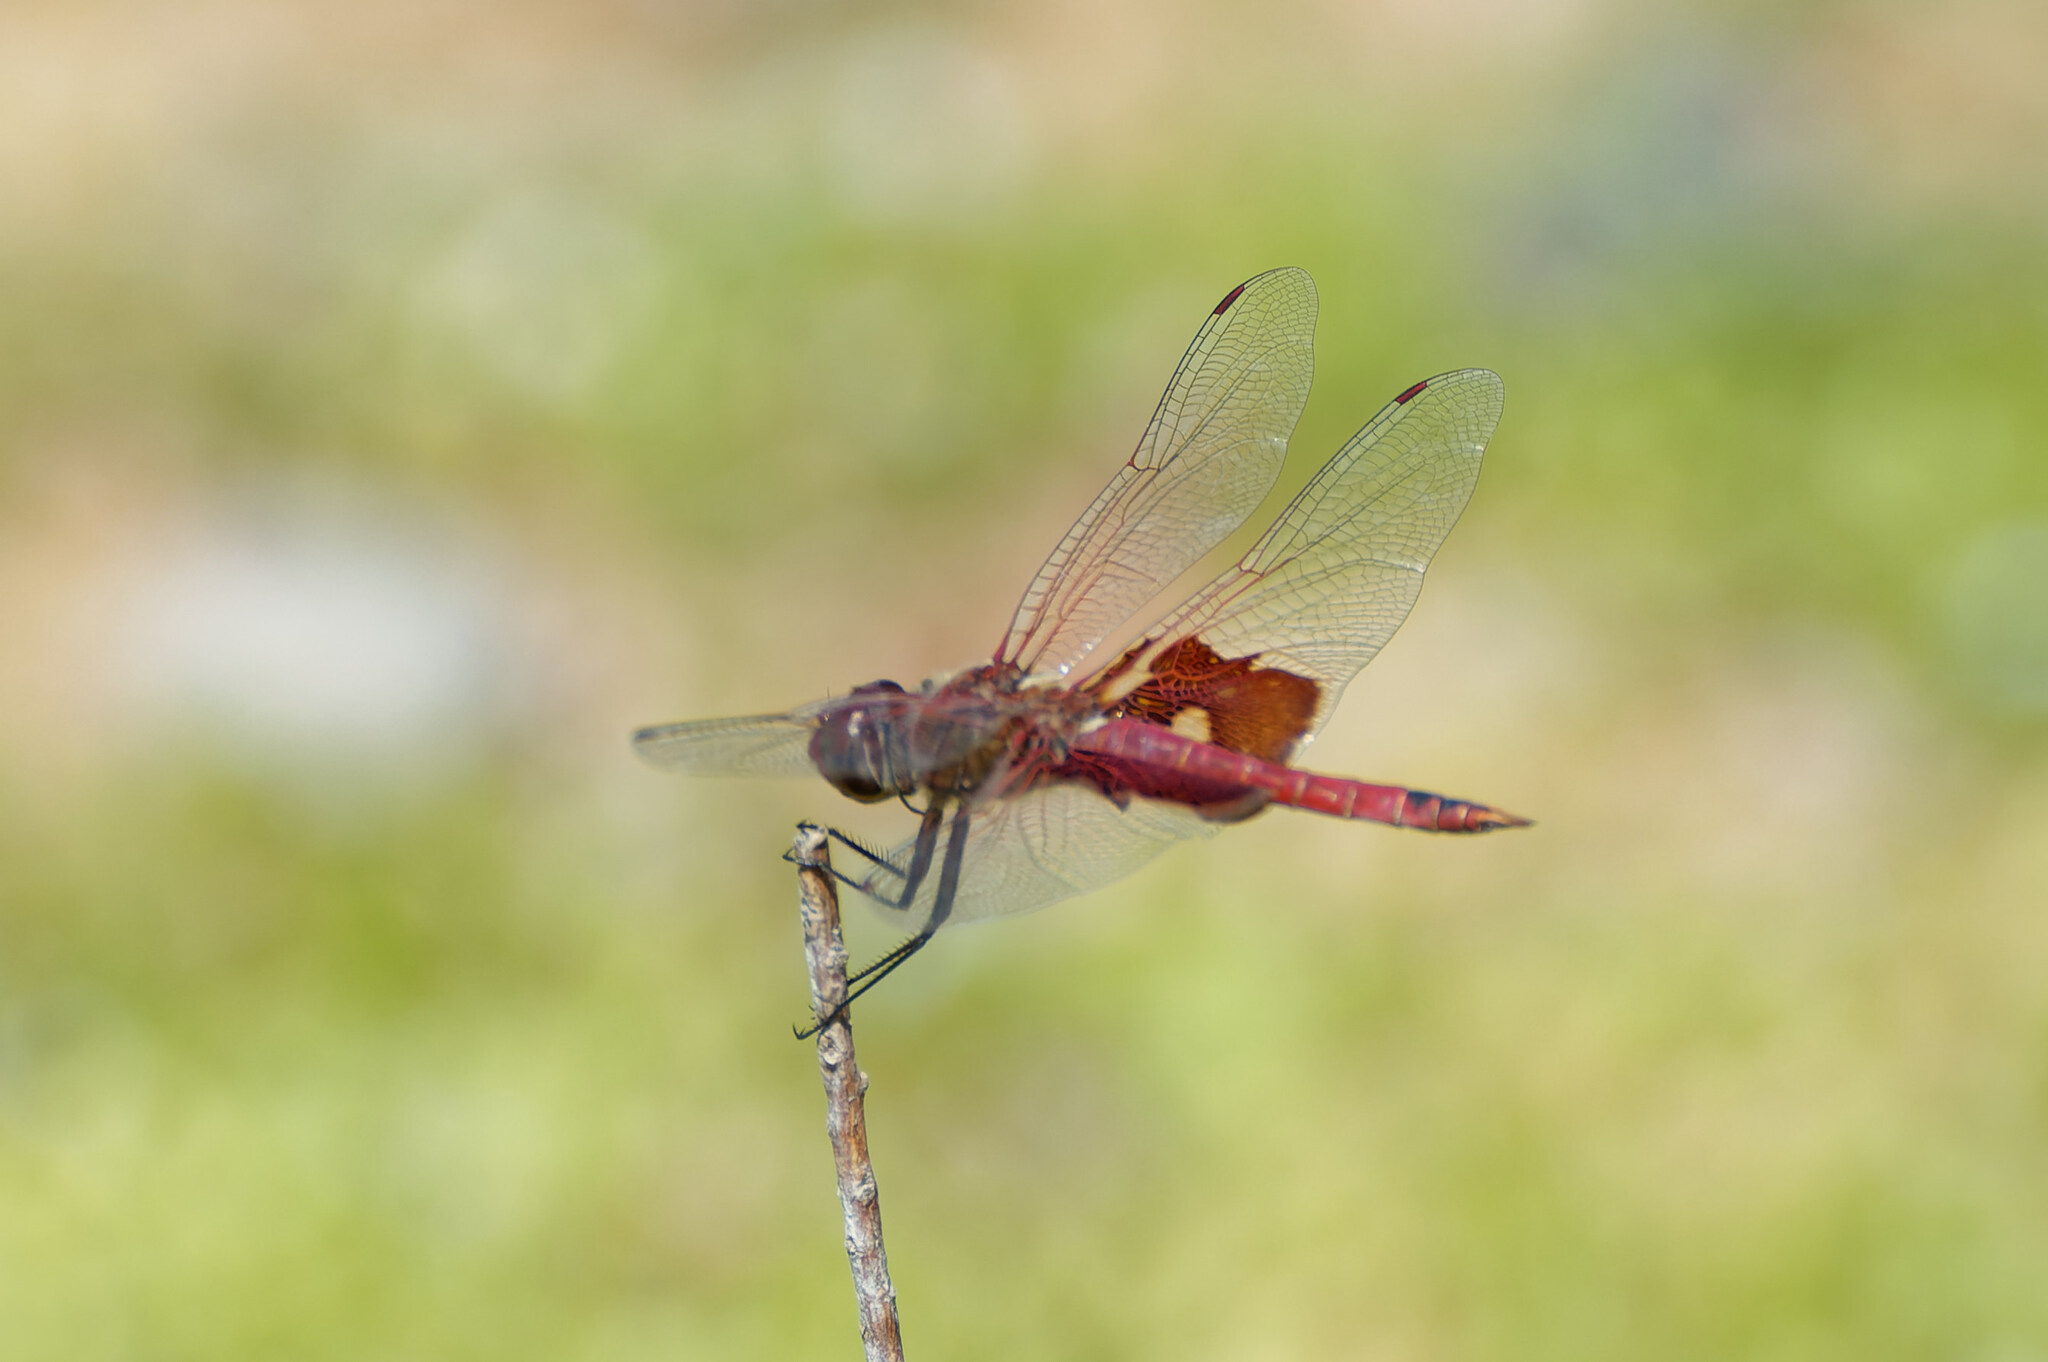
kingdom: Animalia
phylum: Arthropoda
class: Insecta
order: Odonata
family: Libellulidae
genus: Tramea
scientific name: Tramea onusta
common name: Red saddlebags
